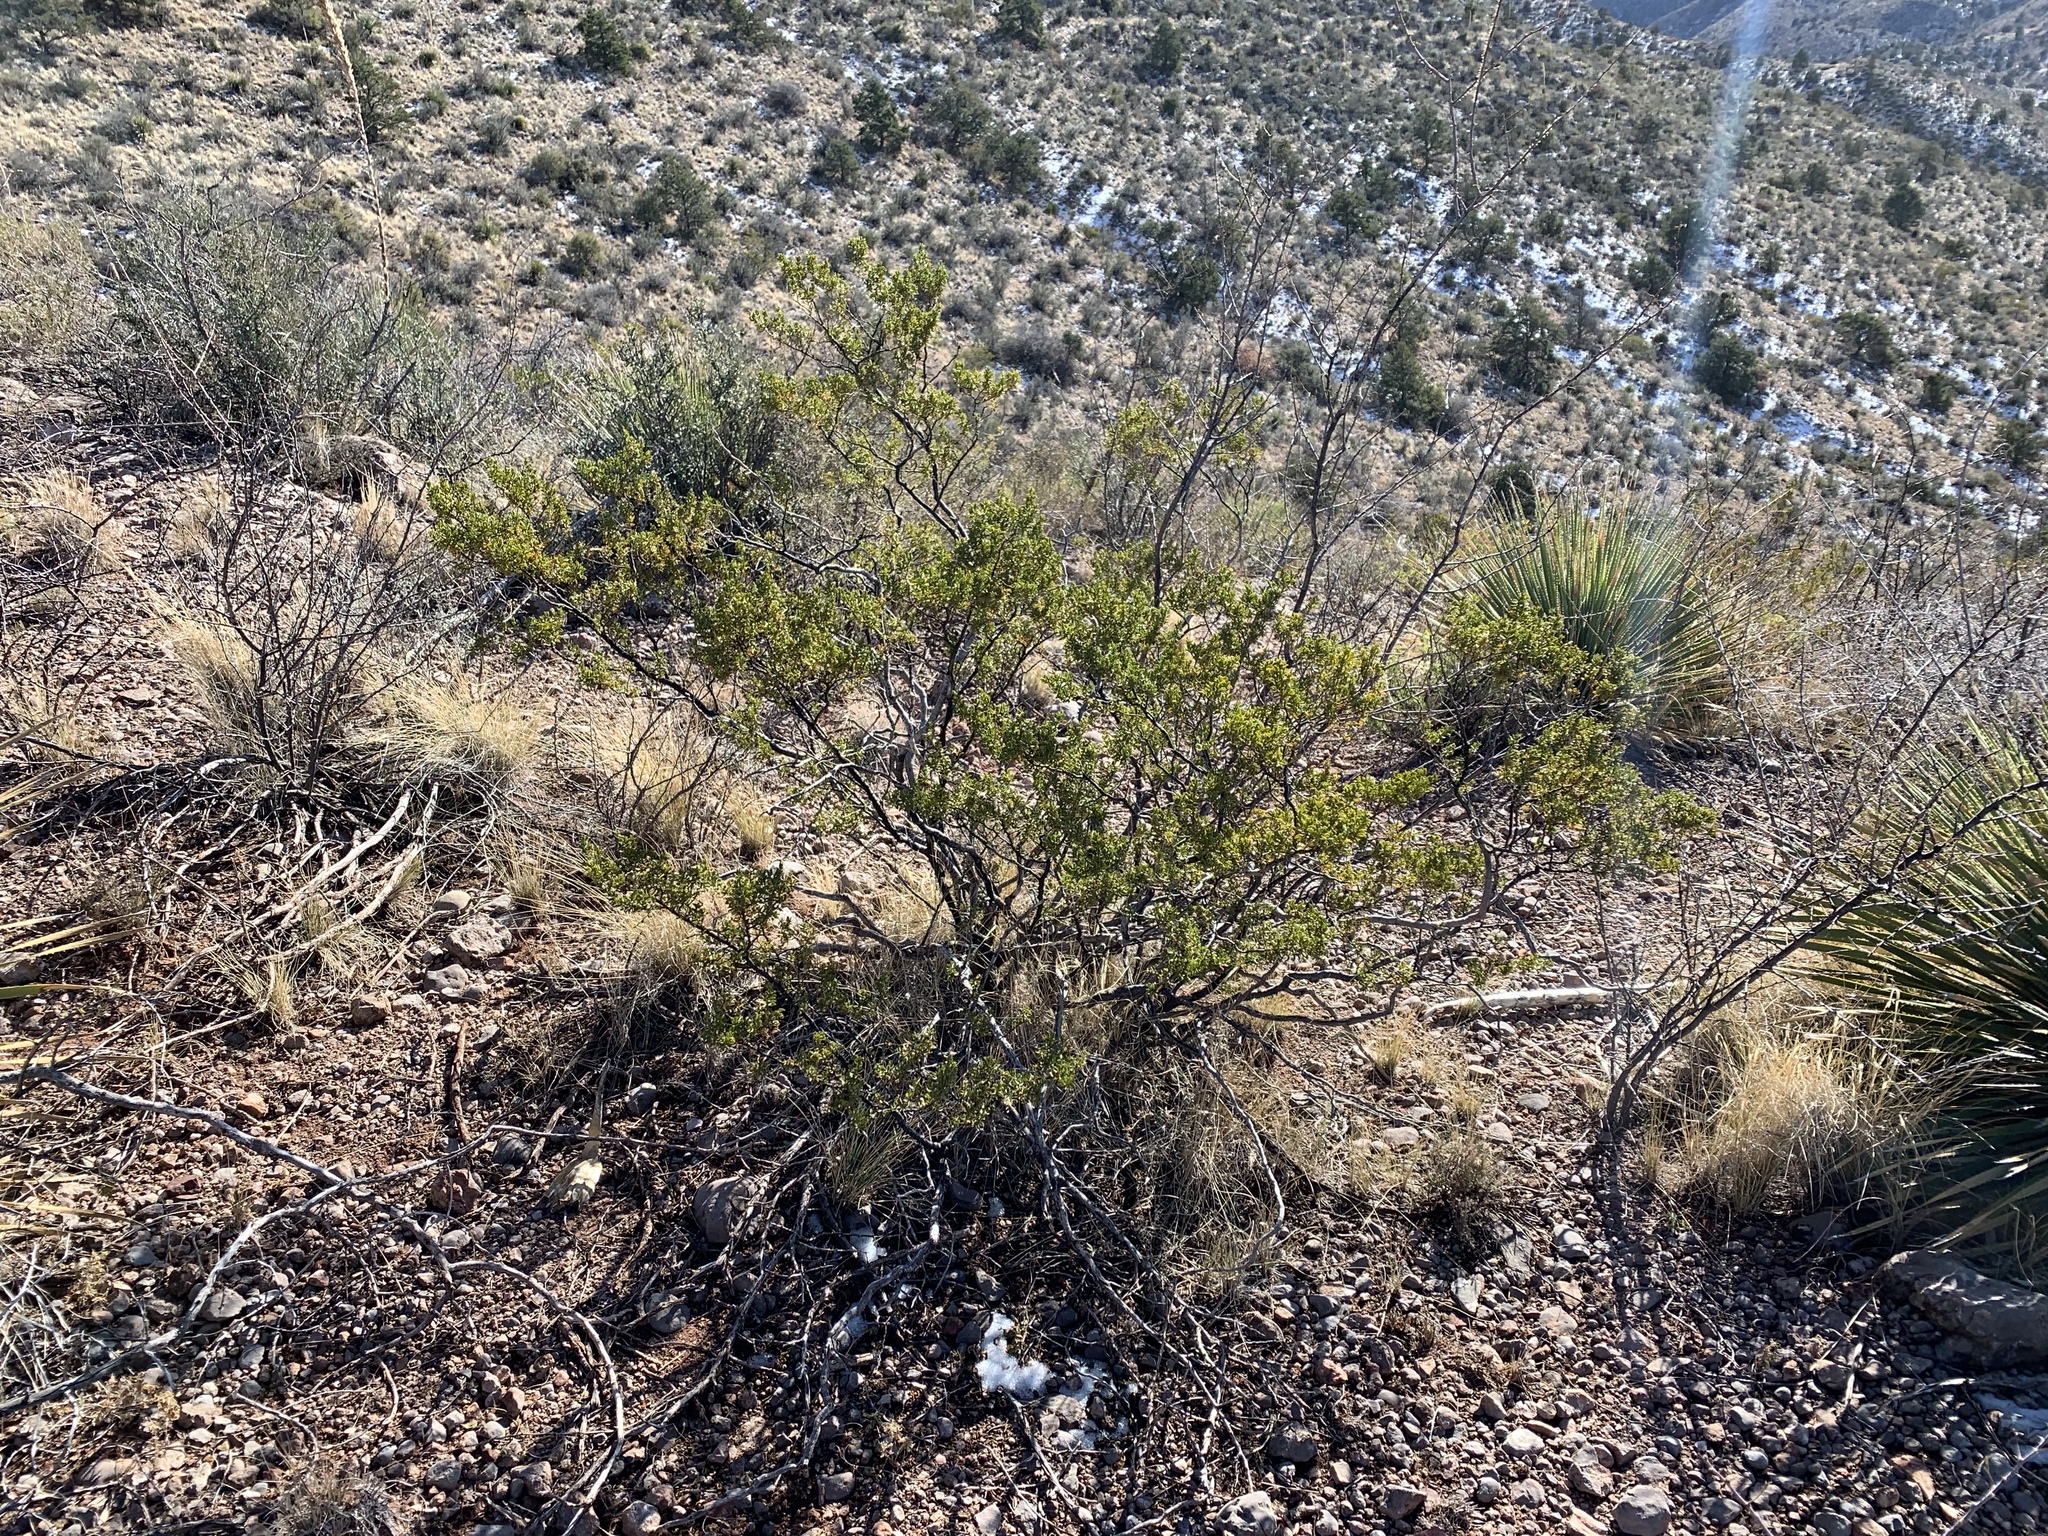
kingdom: Plantae
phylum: Tracheophyta
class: Magnoliopsida
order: Zygophyllales
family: Zygophyllaceae
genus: Larrea
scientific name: Larrea tridentata
